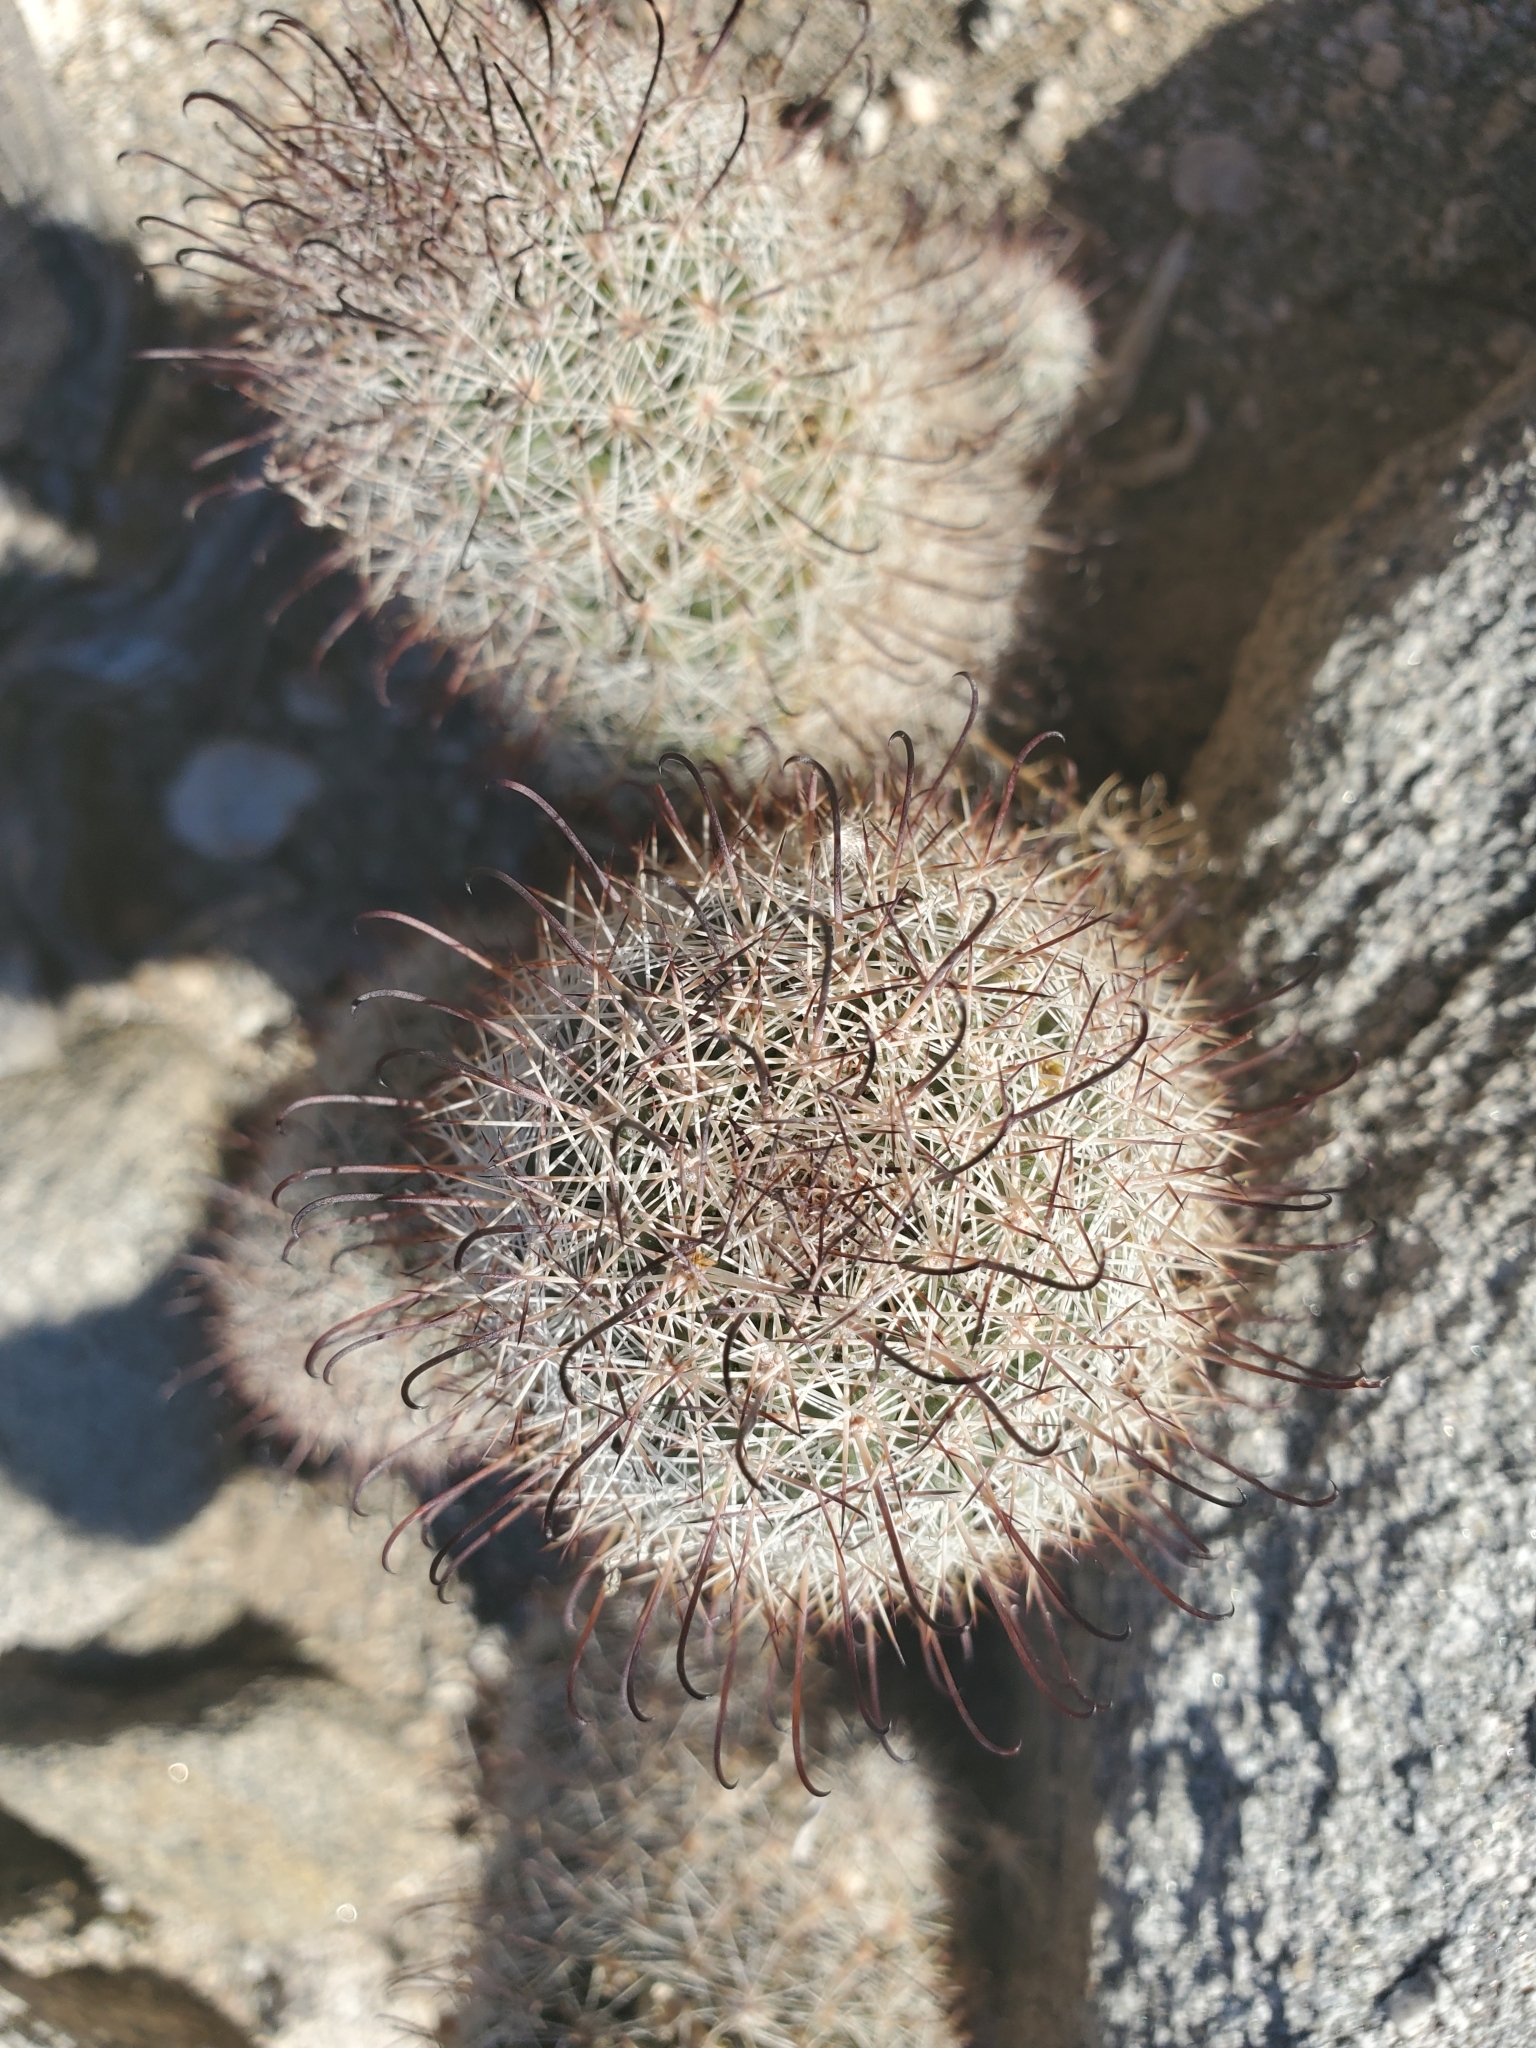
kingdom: Plantae
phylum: Tracheophyta
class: Magnoliopsida
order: Caryophyllales
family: Cactaceae
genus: Cochemiea
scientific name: Cochemiea dioica
